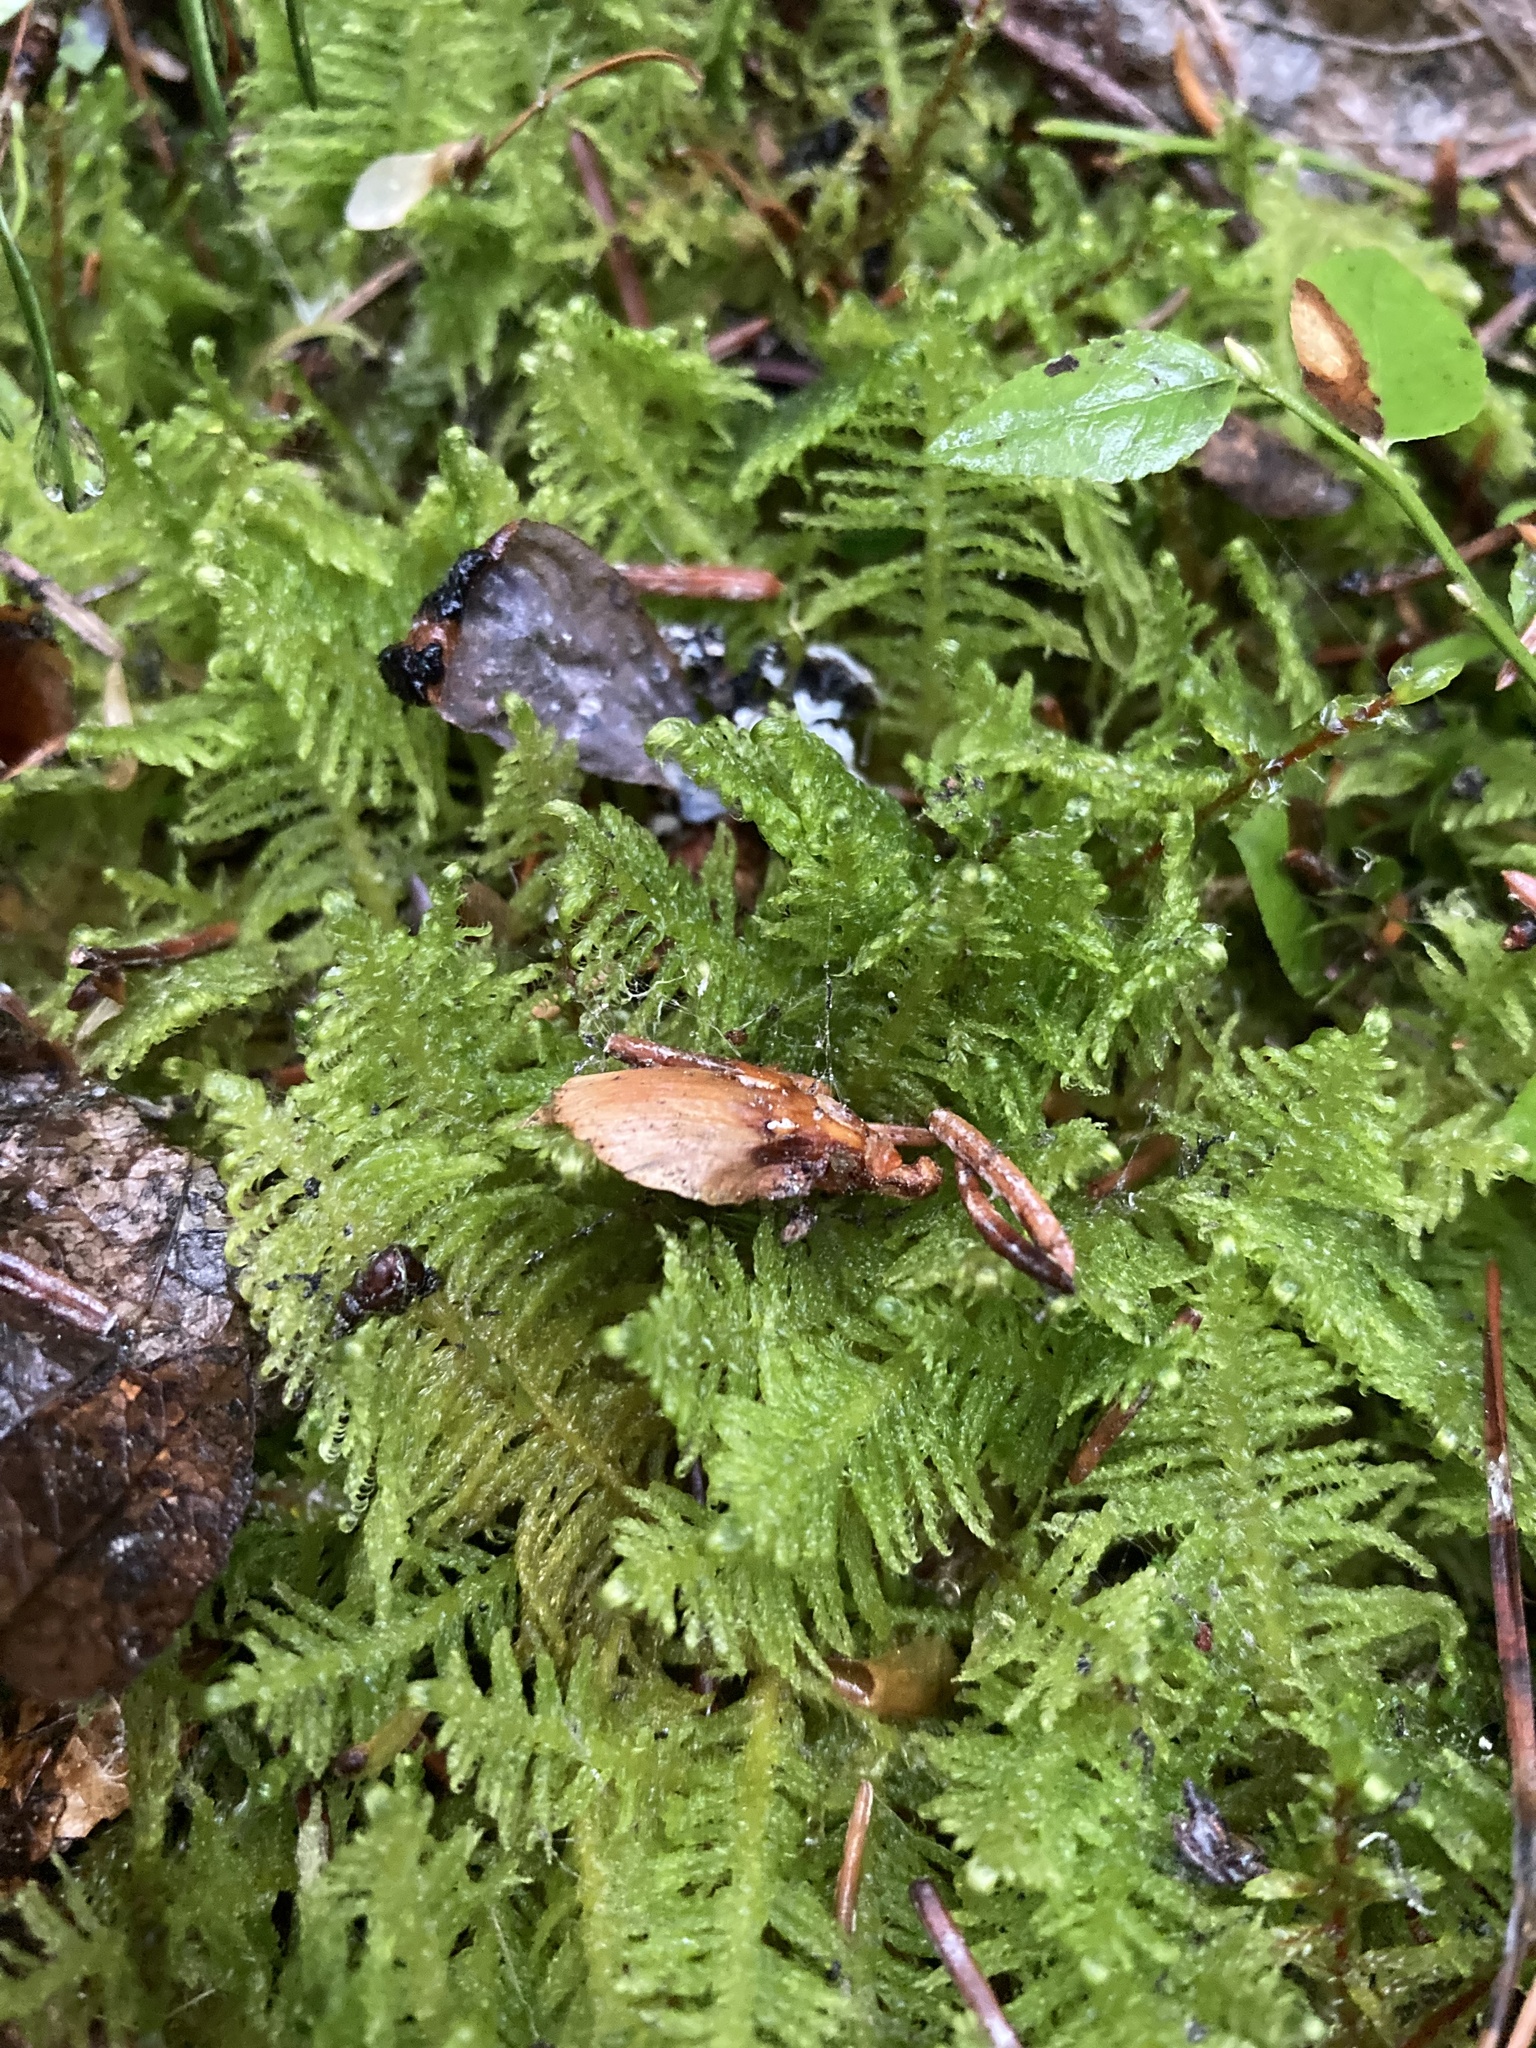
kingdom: Plantae
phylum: Bryophyta
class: Bryopsida
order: Hypnales
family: Pylaisiaceae
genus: Ptilium
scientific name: Ptilium crista-castrensis
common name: Knight's plume moss
